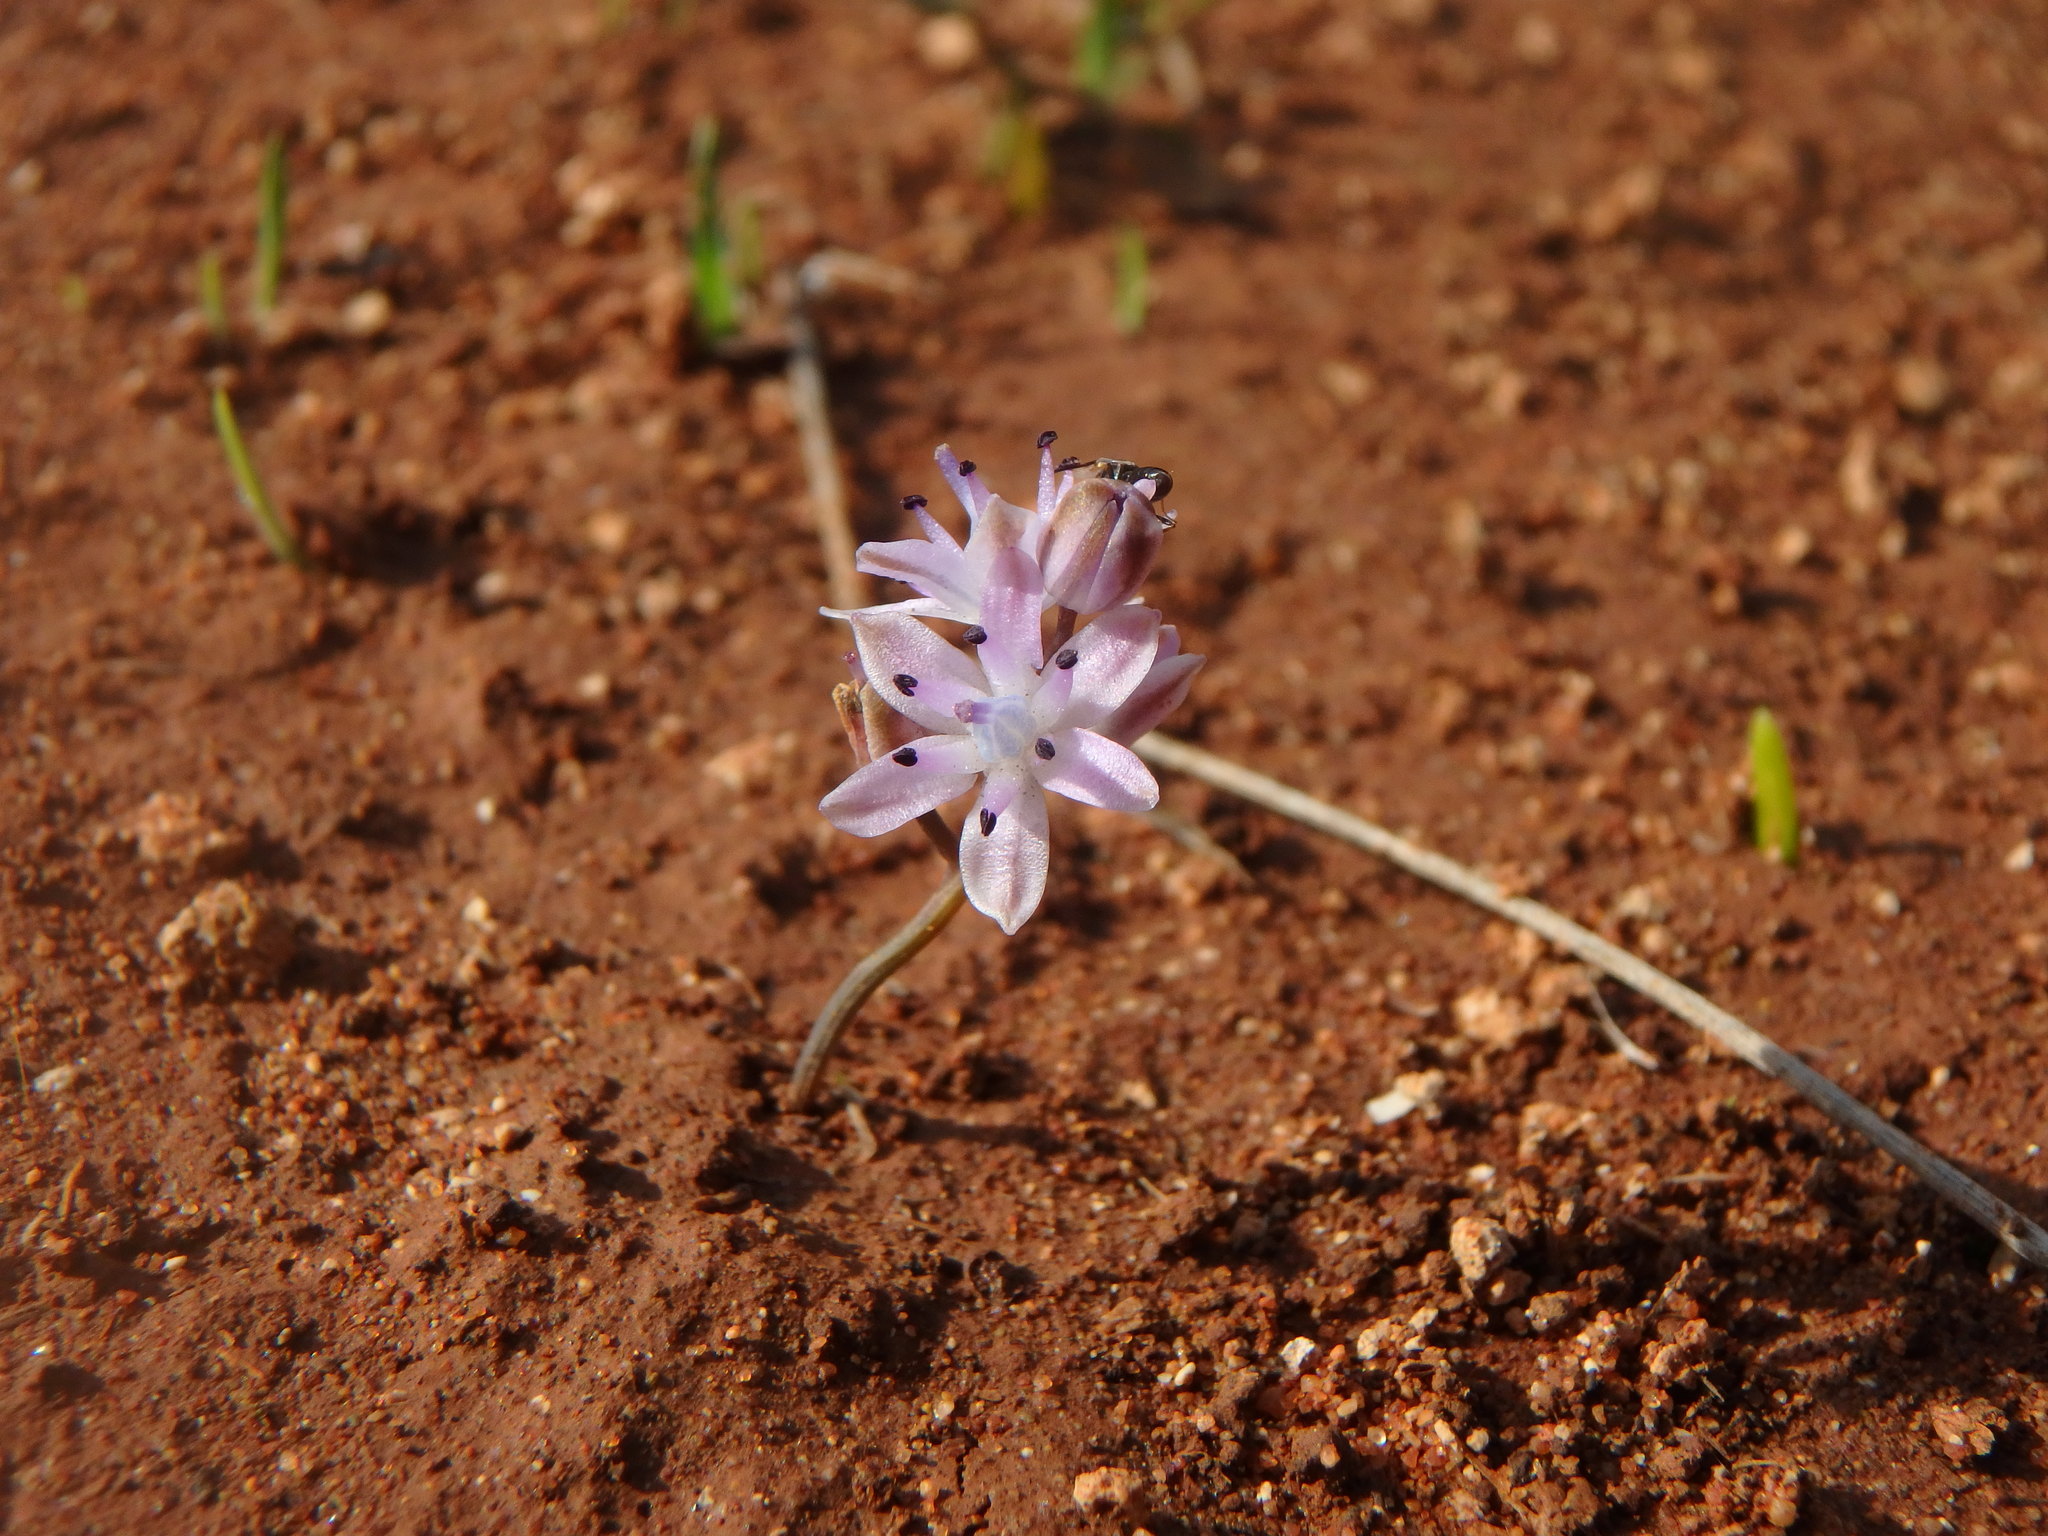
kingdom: Plantae
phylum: Tracheophyta
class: Liliopsida
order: Asparagales
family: Asparagaceae
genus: Prospero
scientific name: Prospero autumnale
